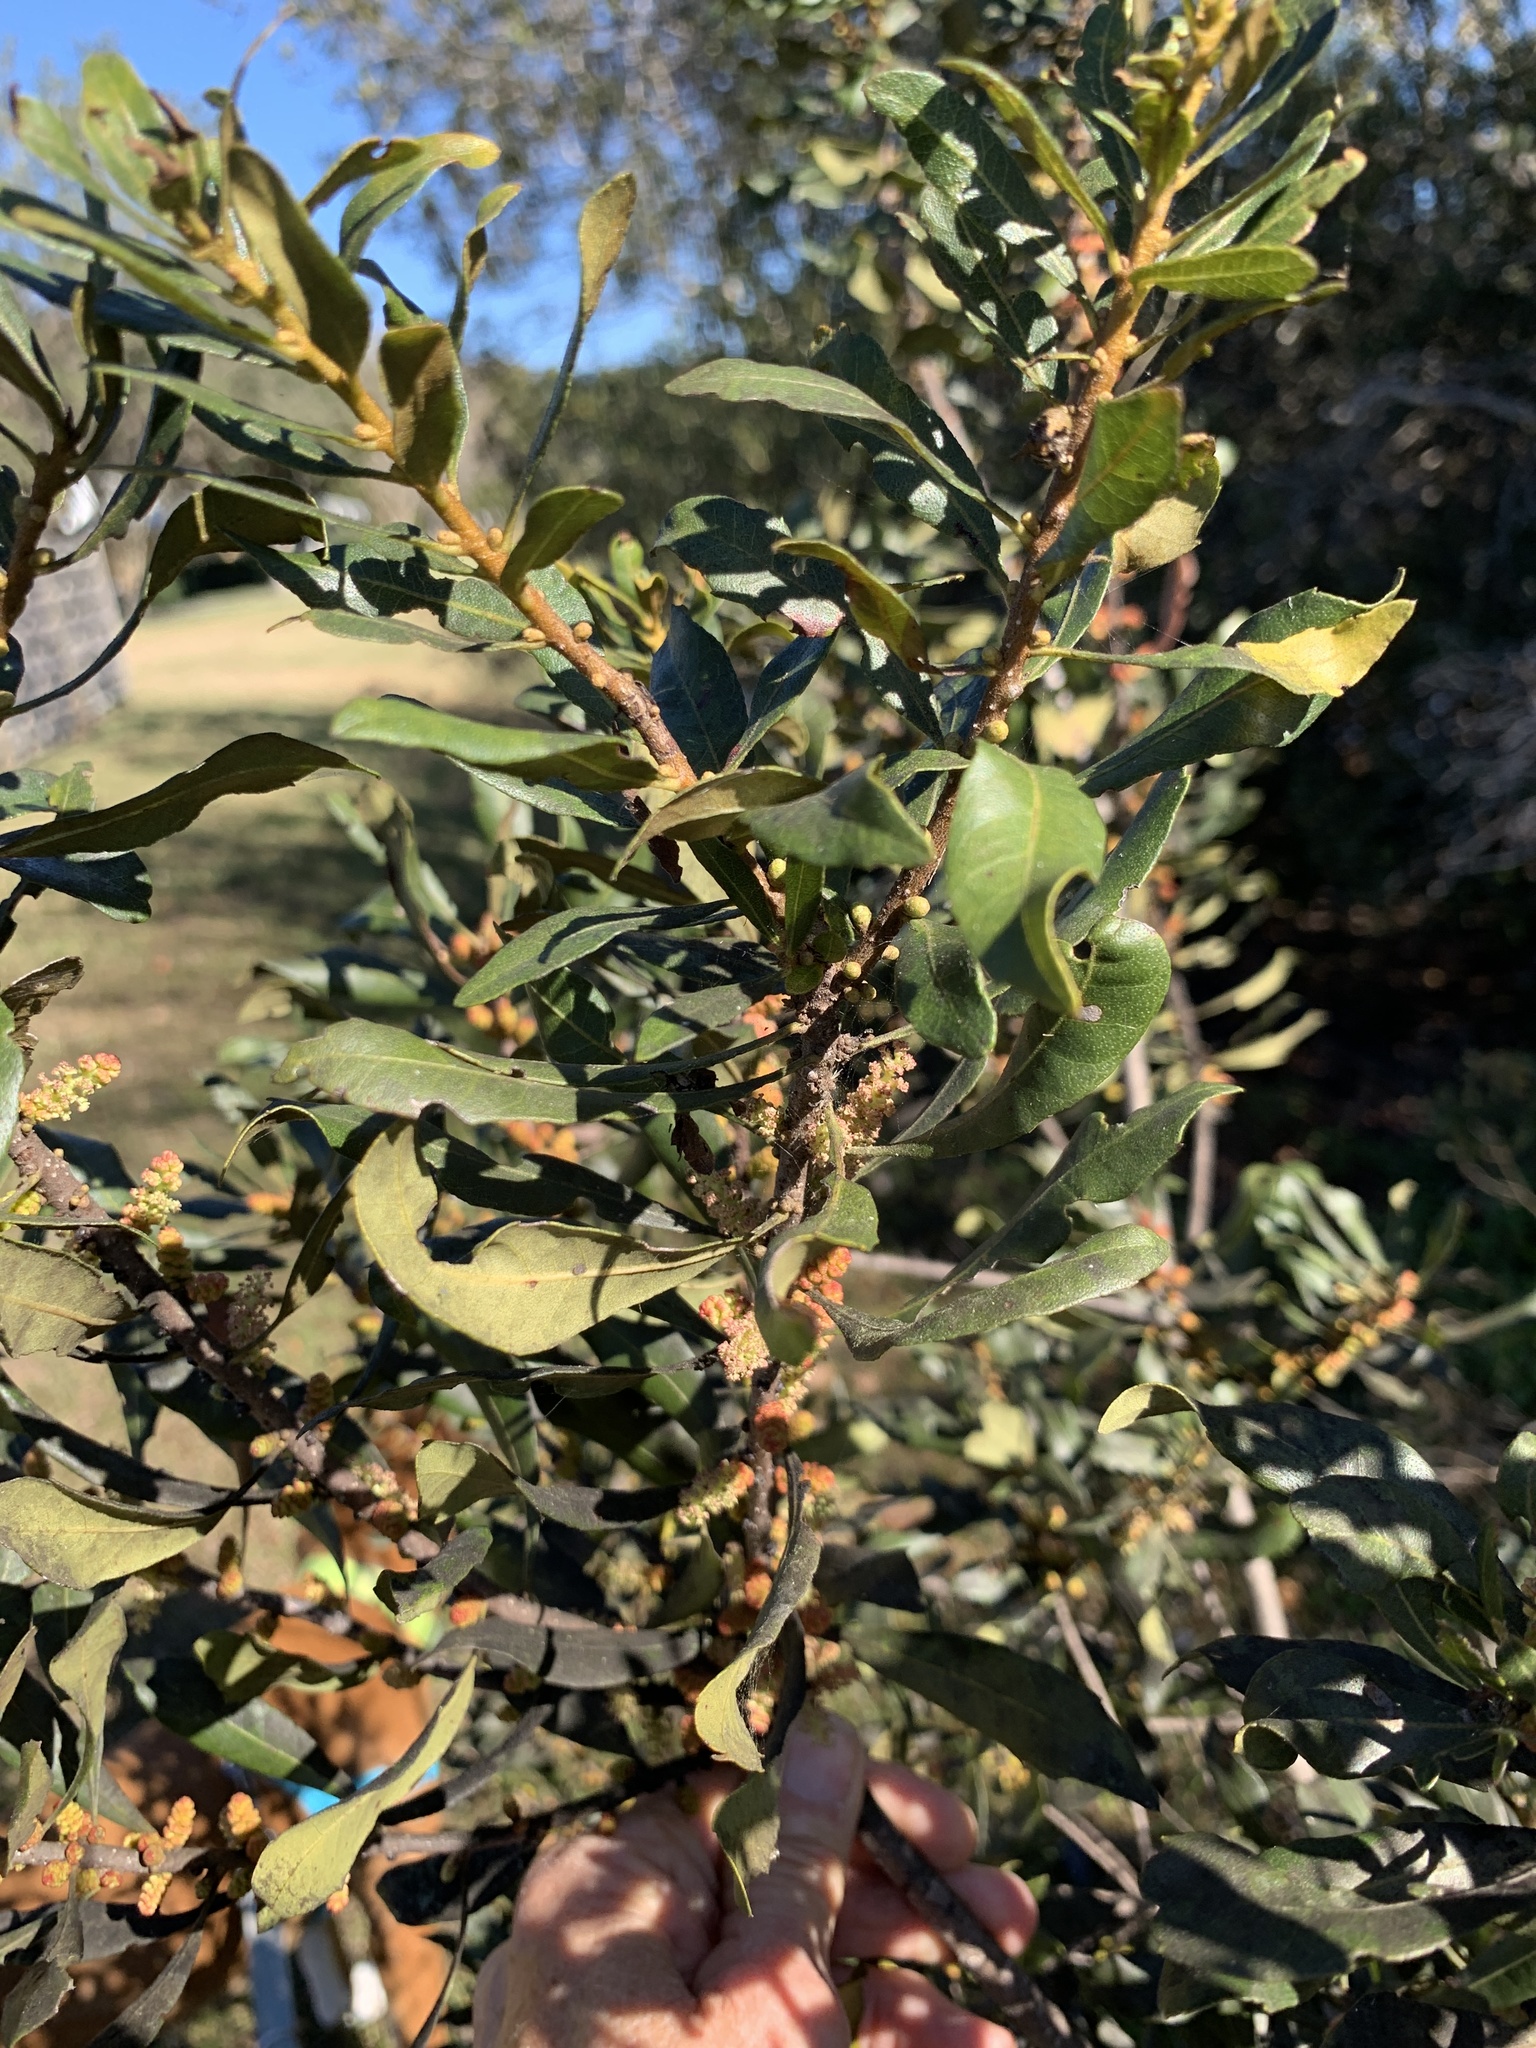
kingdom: Plantae
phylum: Tracheophyta
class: Magnoliopsida
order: Fagales
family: Myricaceae
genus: Morella
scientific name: Morella cerifera
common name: Wax myrtle
